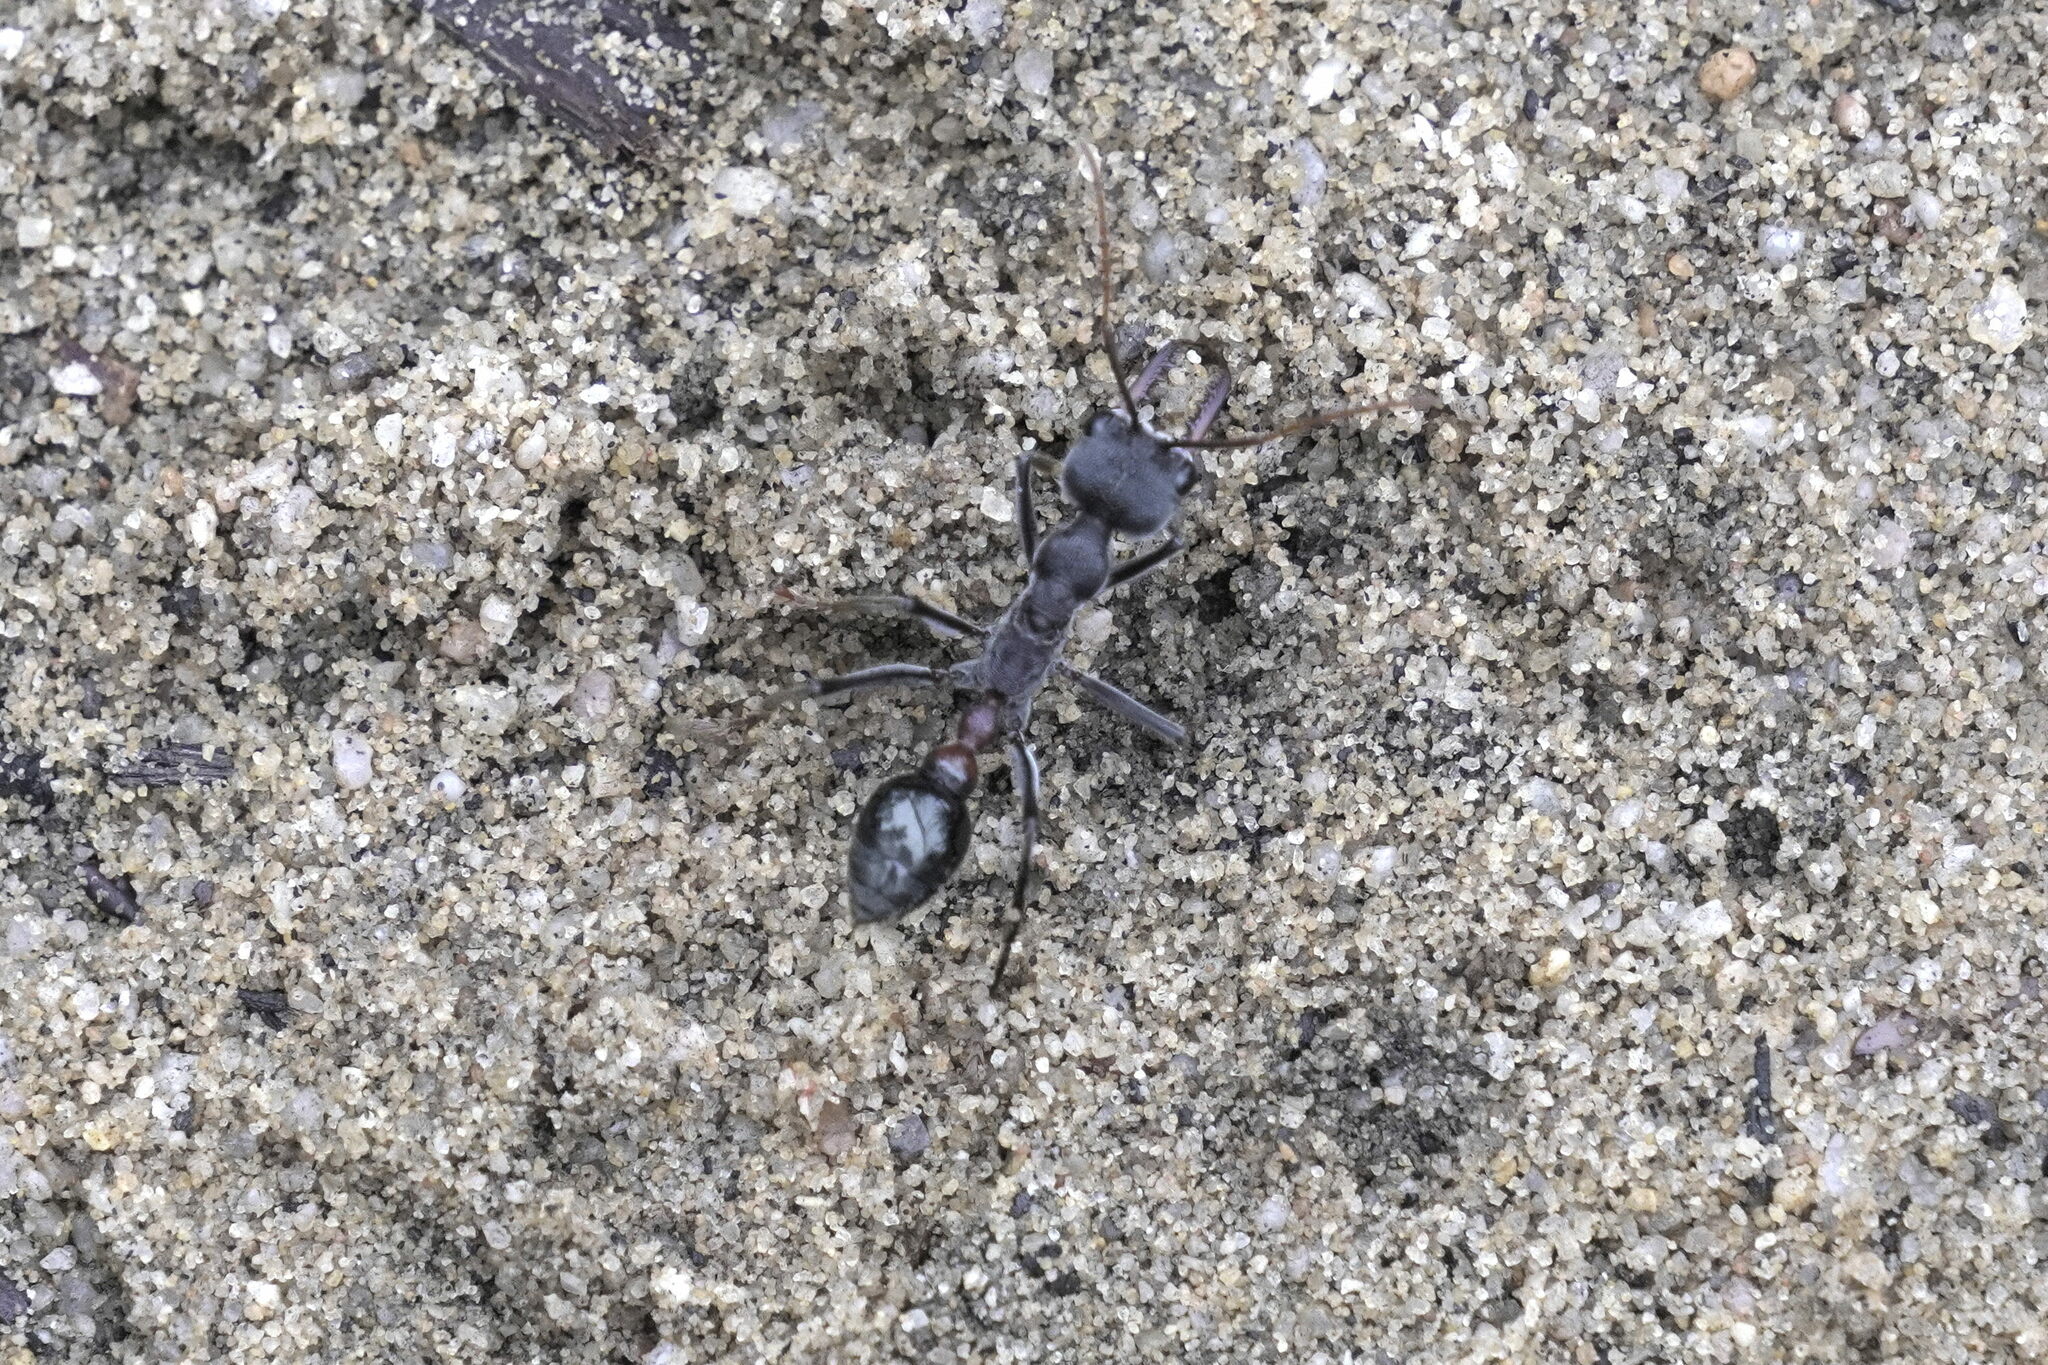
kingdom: Animalia
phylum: Arthropoda
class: Insecta
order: Hymenoptera
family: Formicidae
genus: Myrmecia
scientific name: Myrmecia simillima
